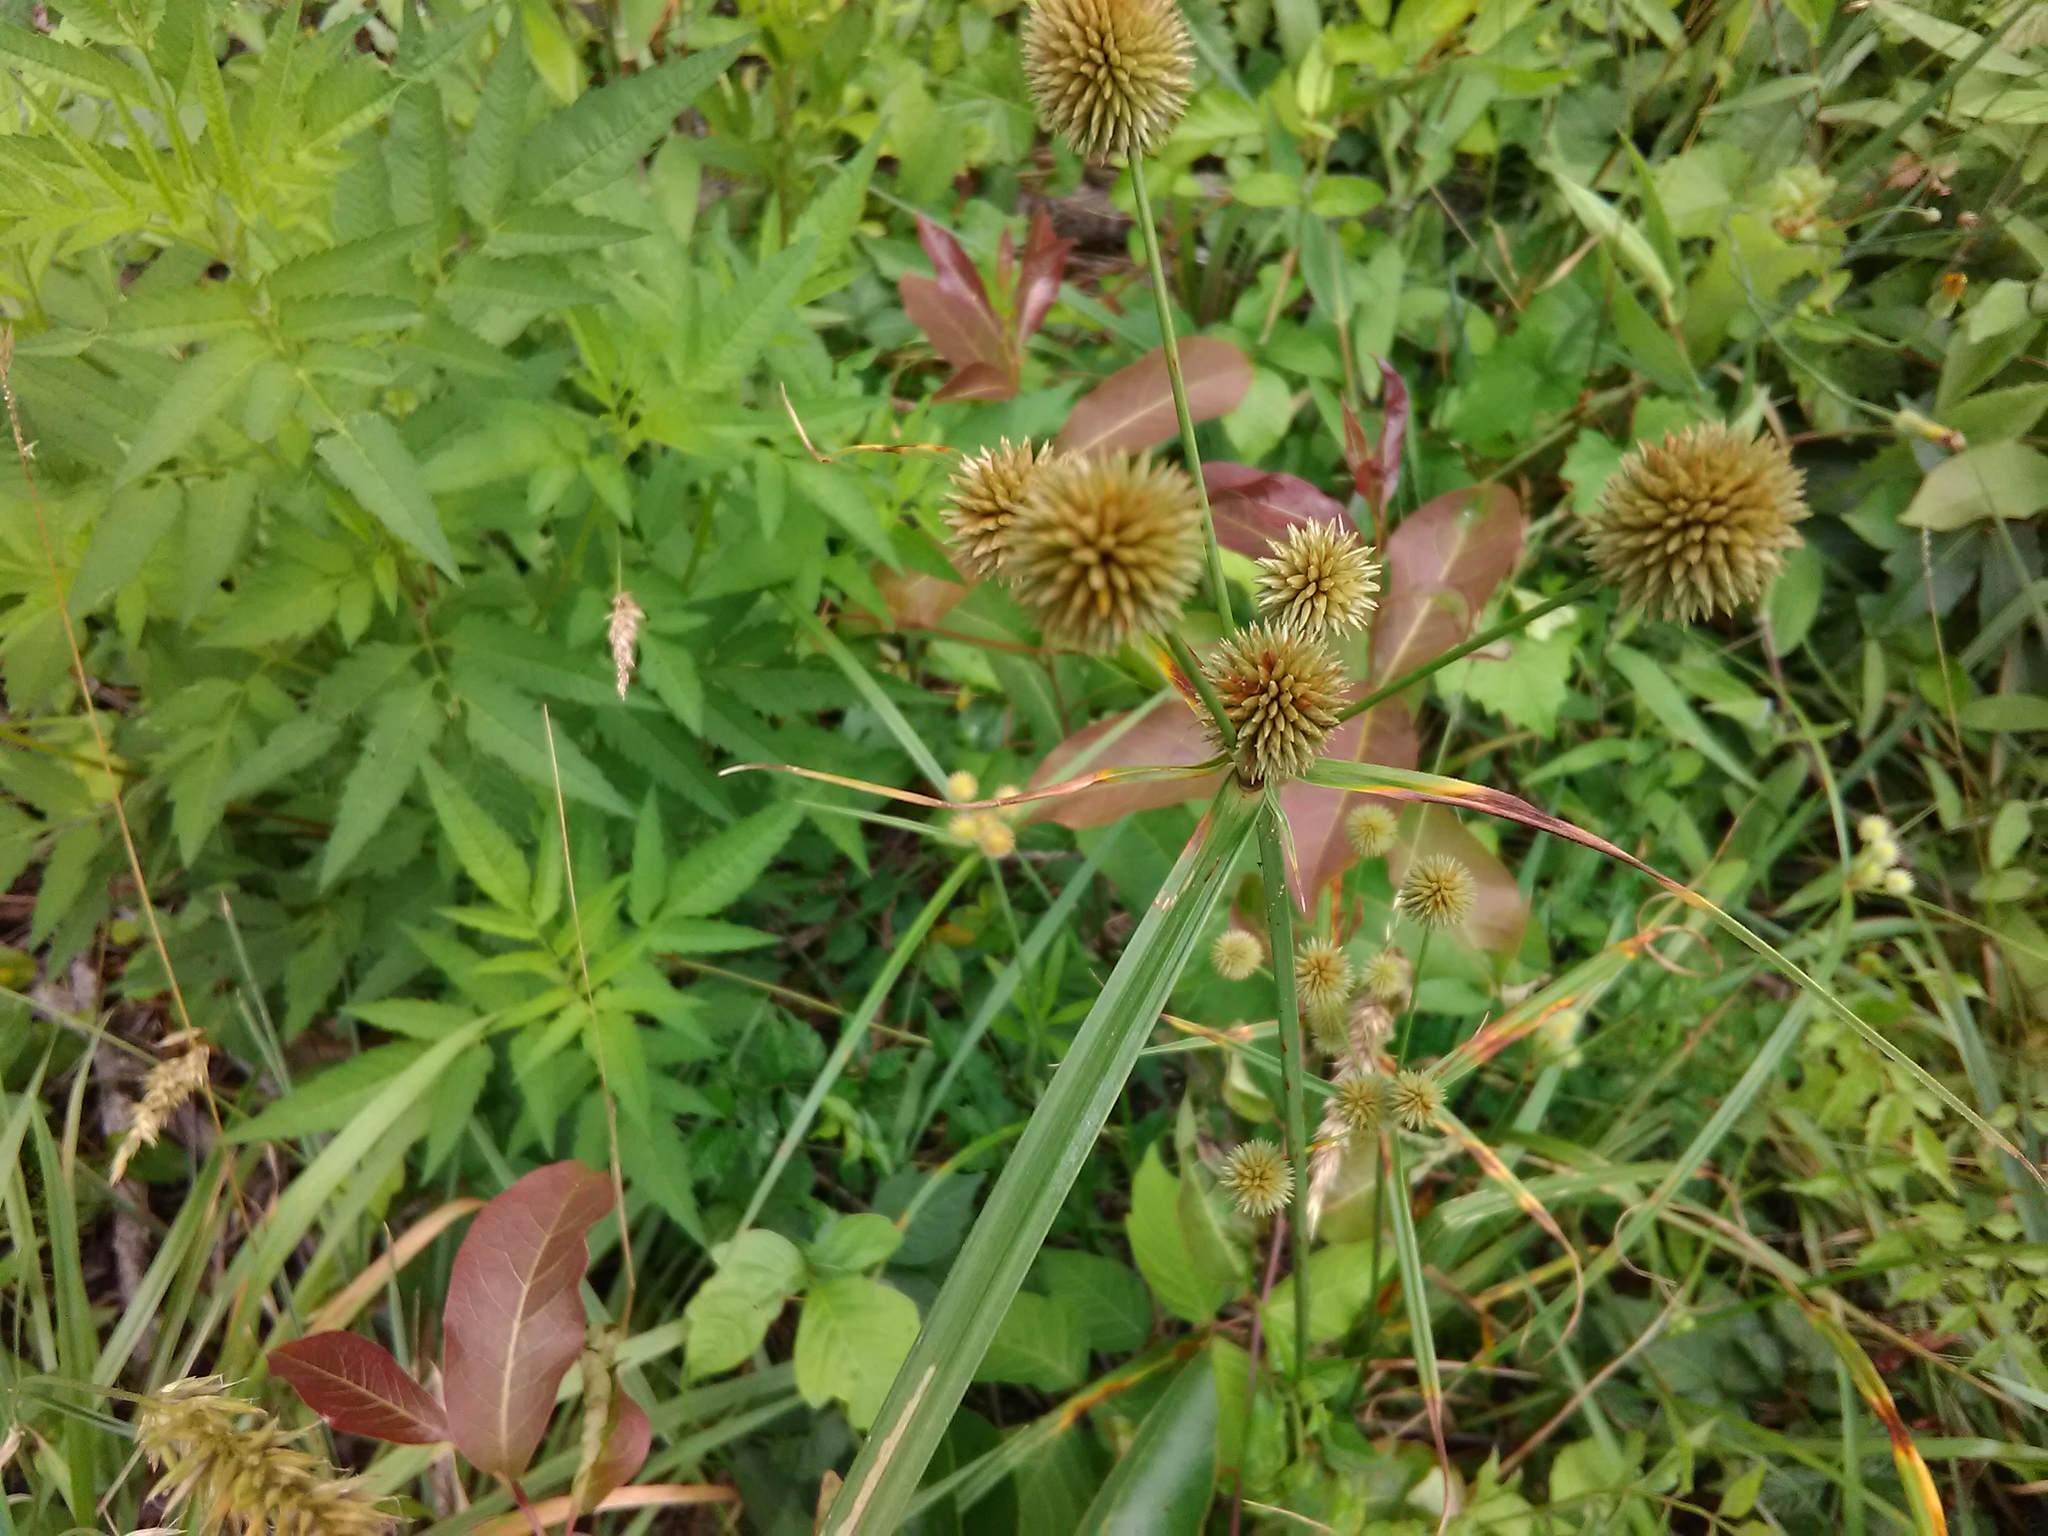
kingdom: Plantae
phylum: Tracheophyta
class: Liliopsida
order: Poales
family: Cyperaceae
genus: Cyperus
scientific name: Cyperus echinatus
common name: Teasel sedge
